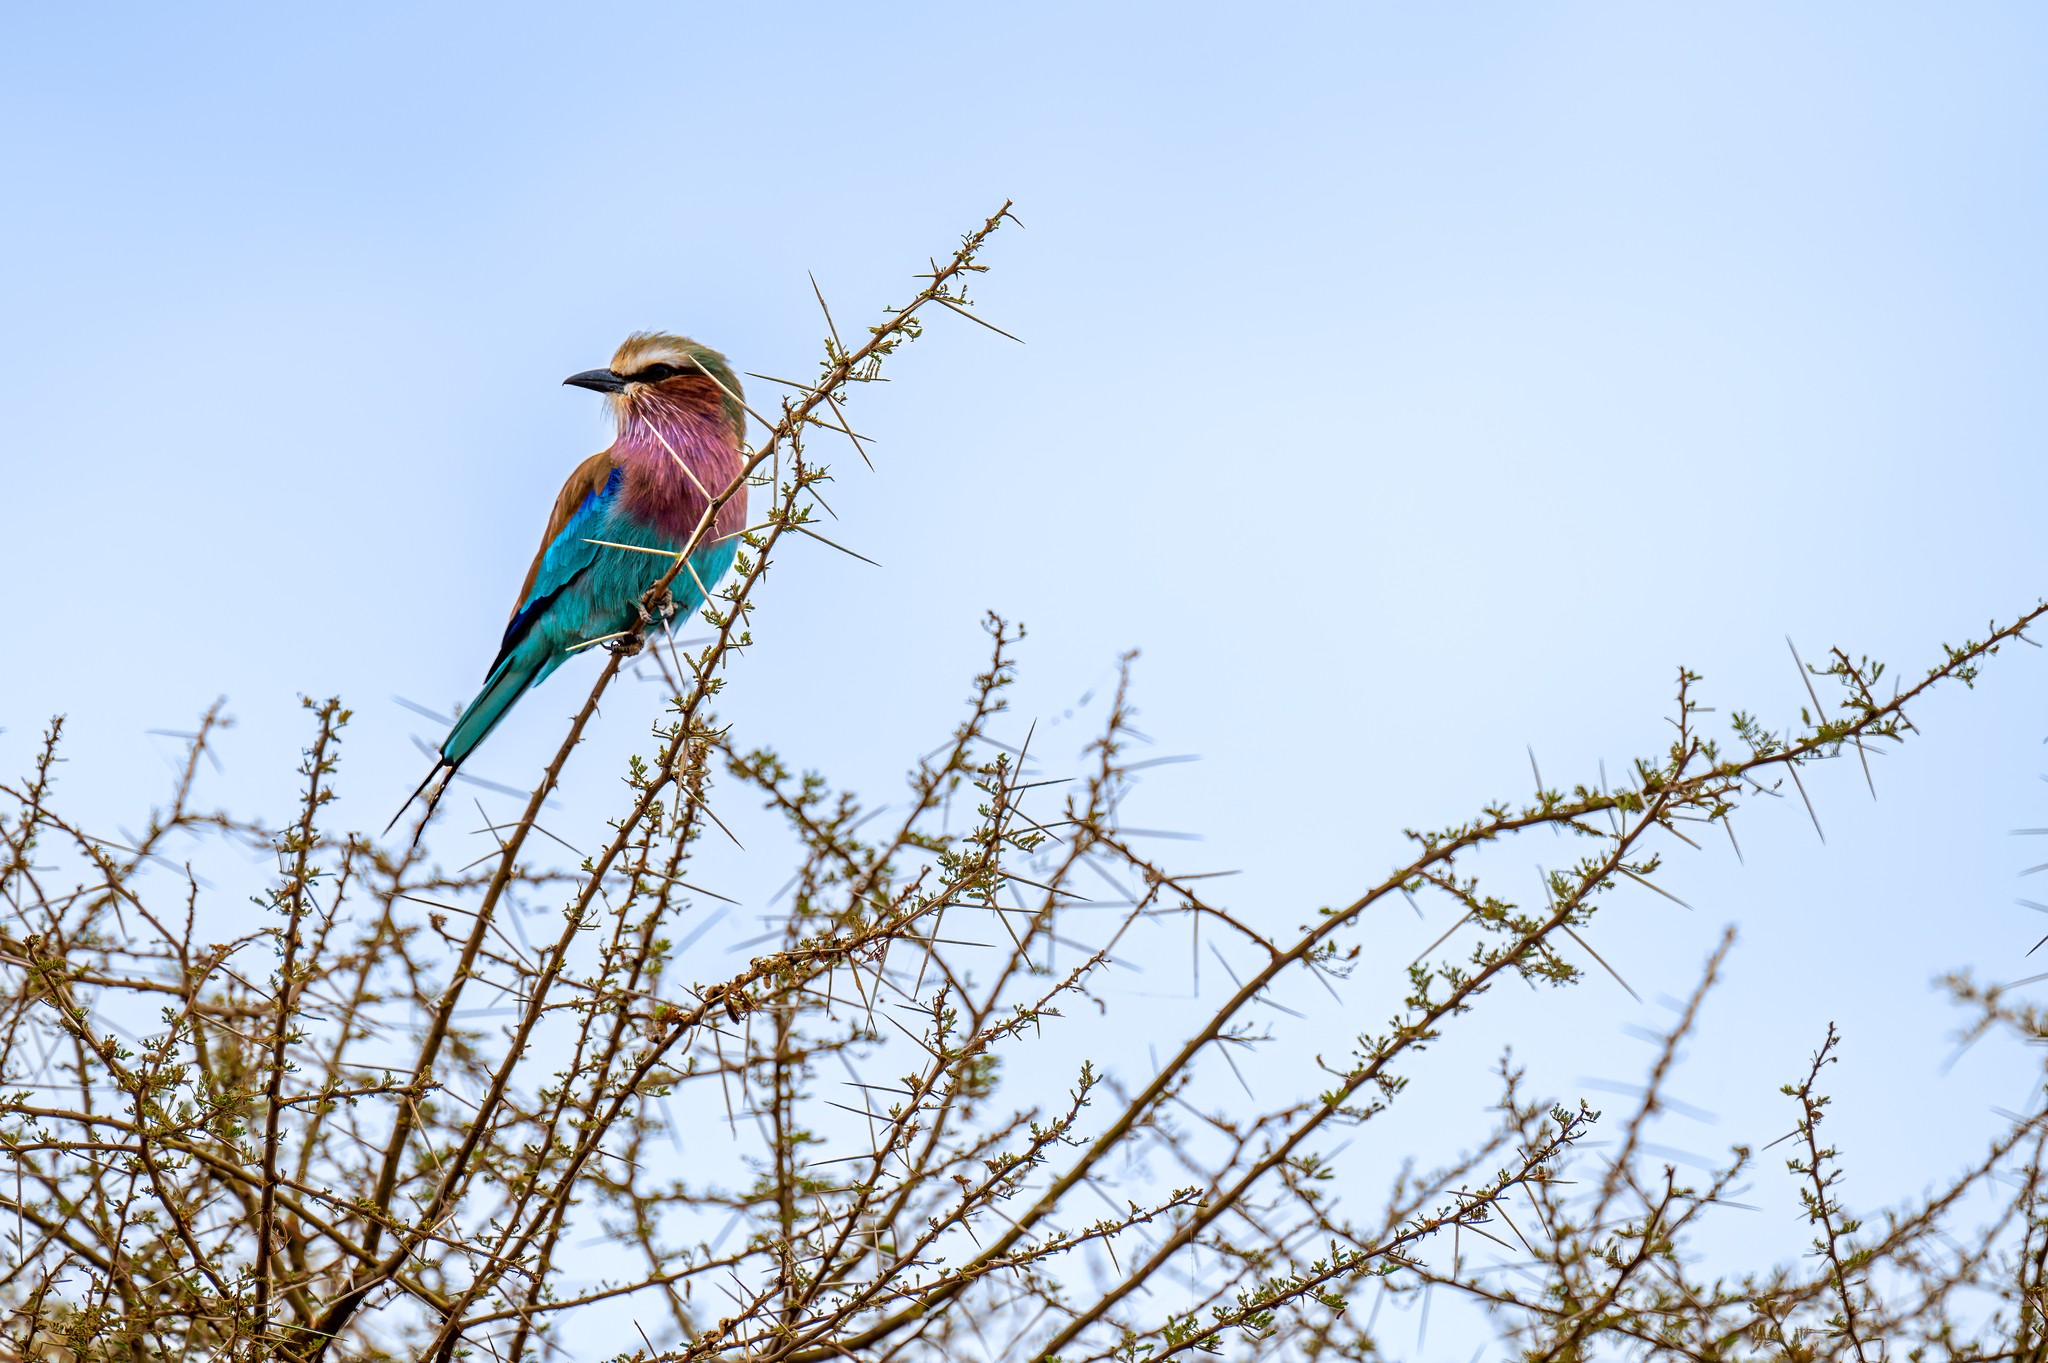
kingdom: Animalia
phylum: Chordata
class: Aves
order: Coraciiformes
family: Coraciidae
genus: Coracias
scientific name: Coracias caudatus
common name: Lilac-breasted roller
